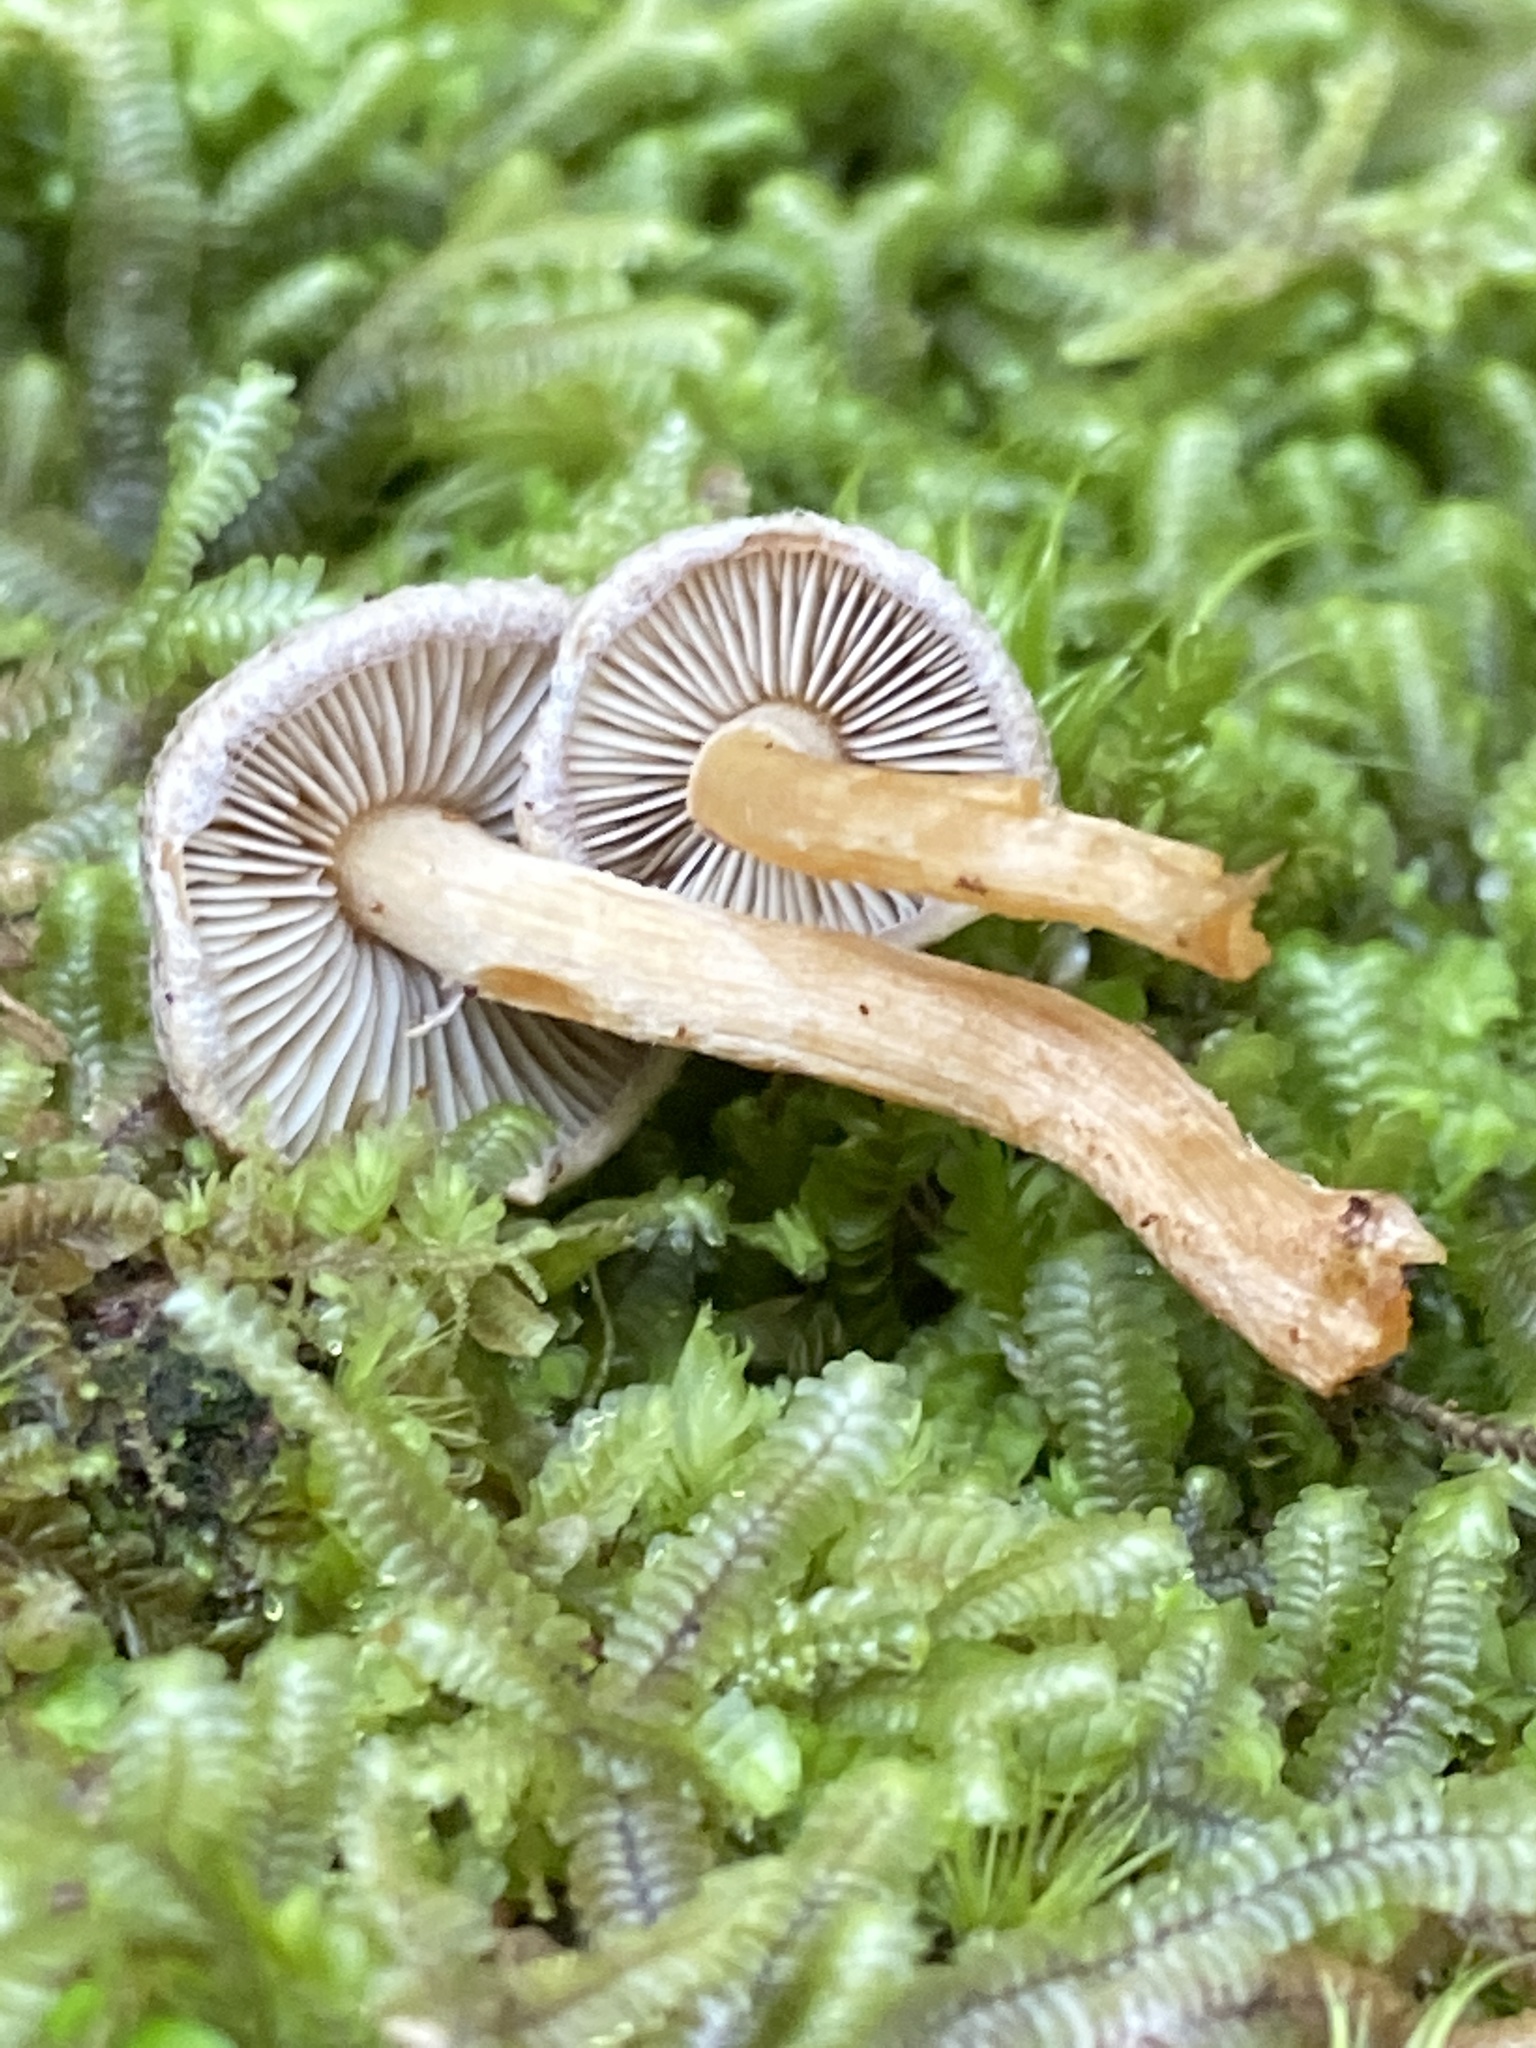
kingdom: Fungi
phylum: Basidiomycota
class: Agaricomycetes
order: Agaricales
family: Strophariaceae
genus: Hypholoma
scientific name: Hypholoma brunneum
